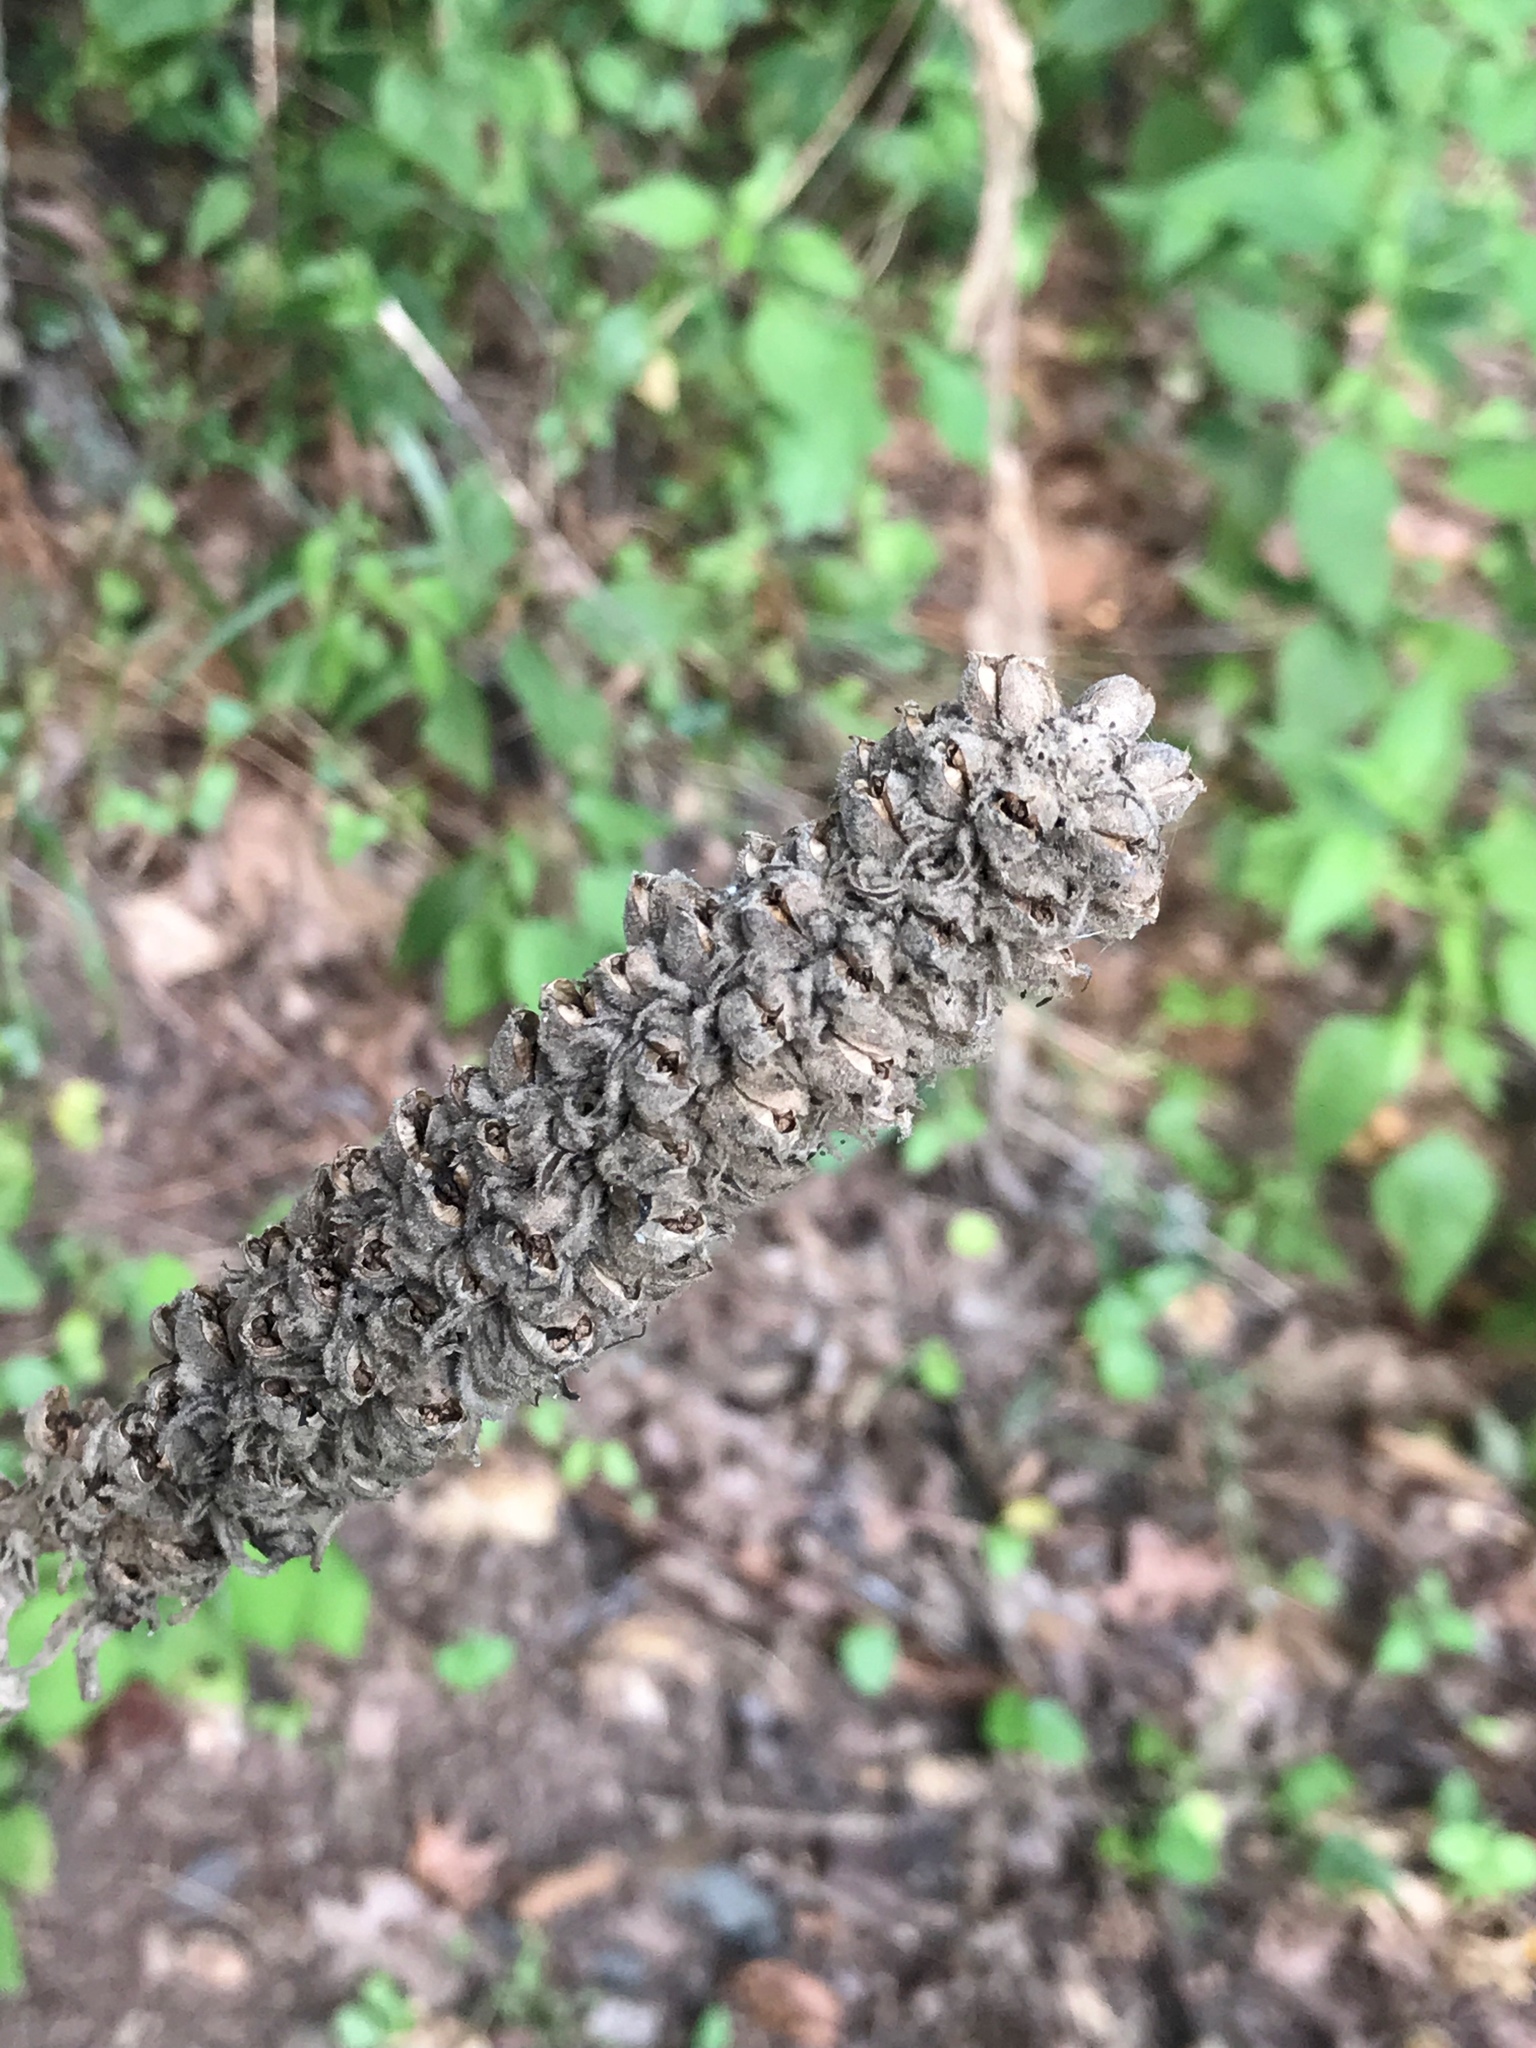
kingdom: Plantae
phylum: Tracheophyta
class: Magnoliopsida
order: Lamiales
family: Scrophulariaceae
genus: Verbascum
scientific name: Verbascum thapsus
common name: Common mullein
